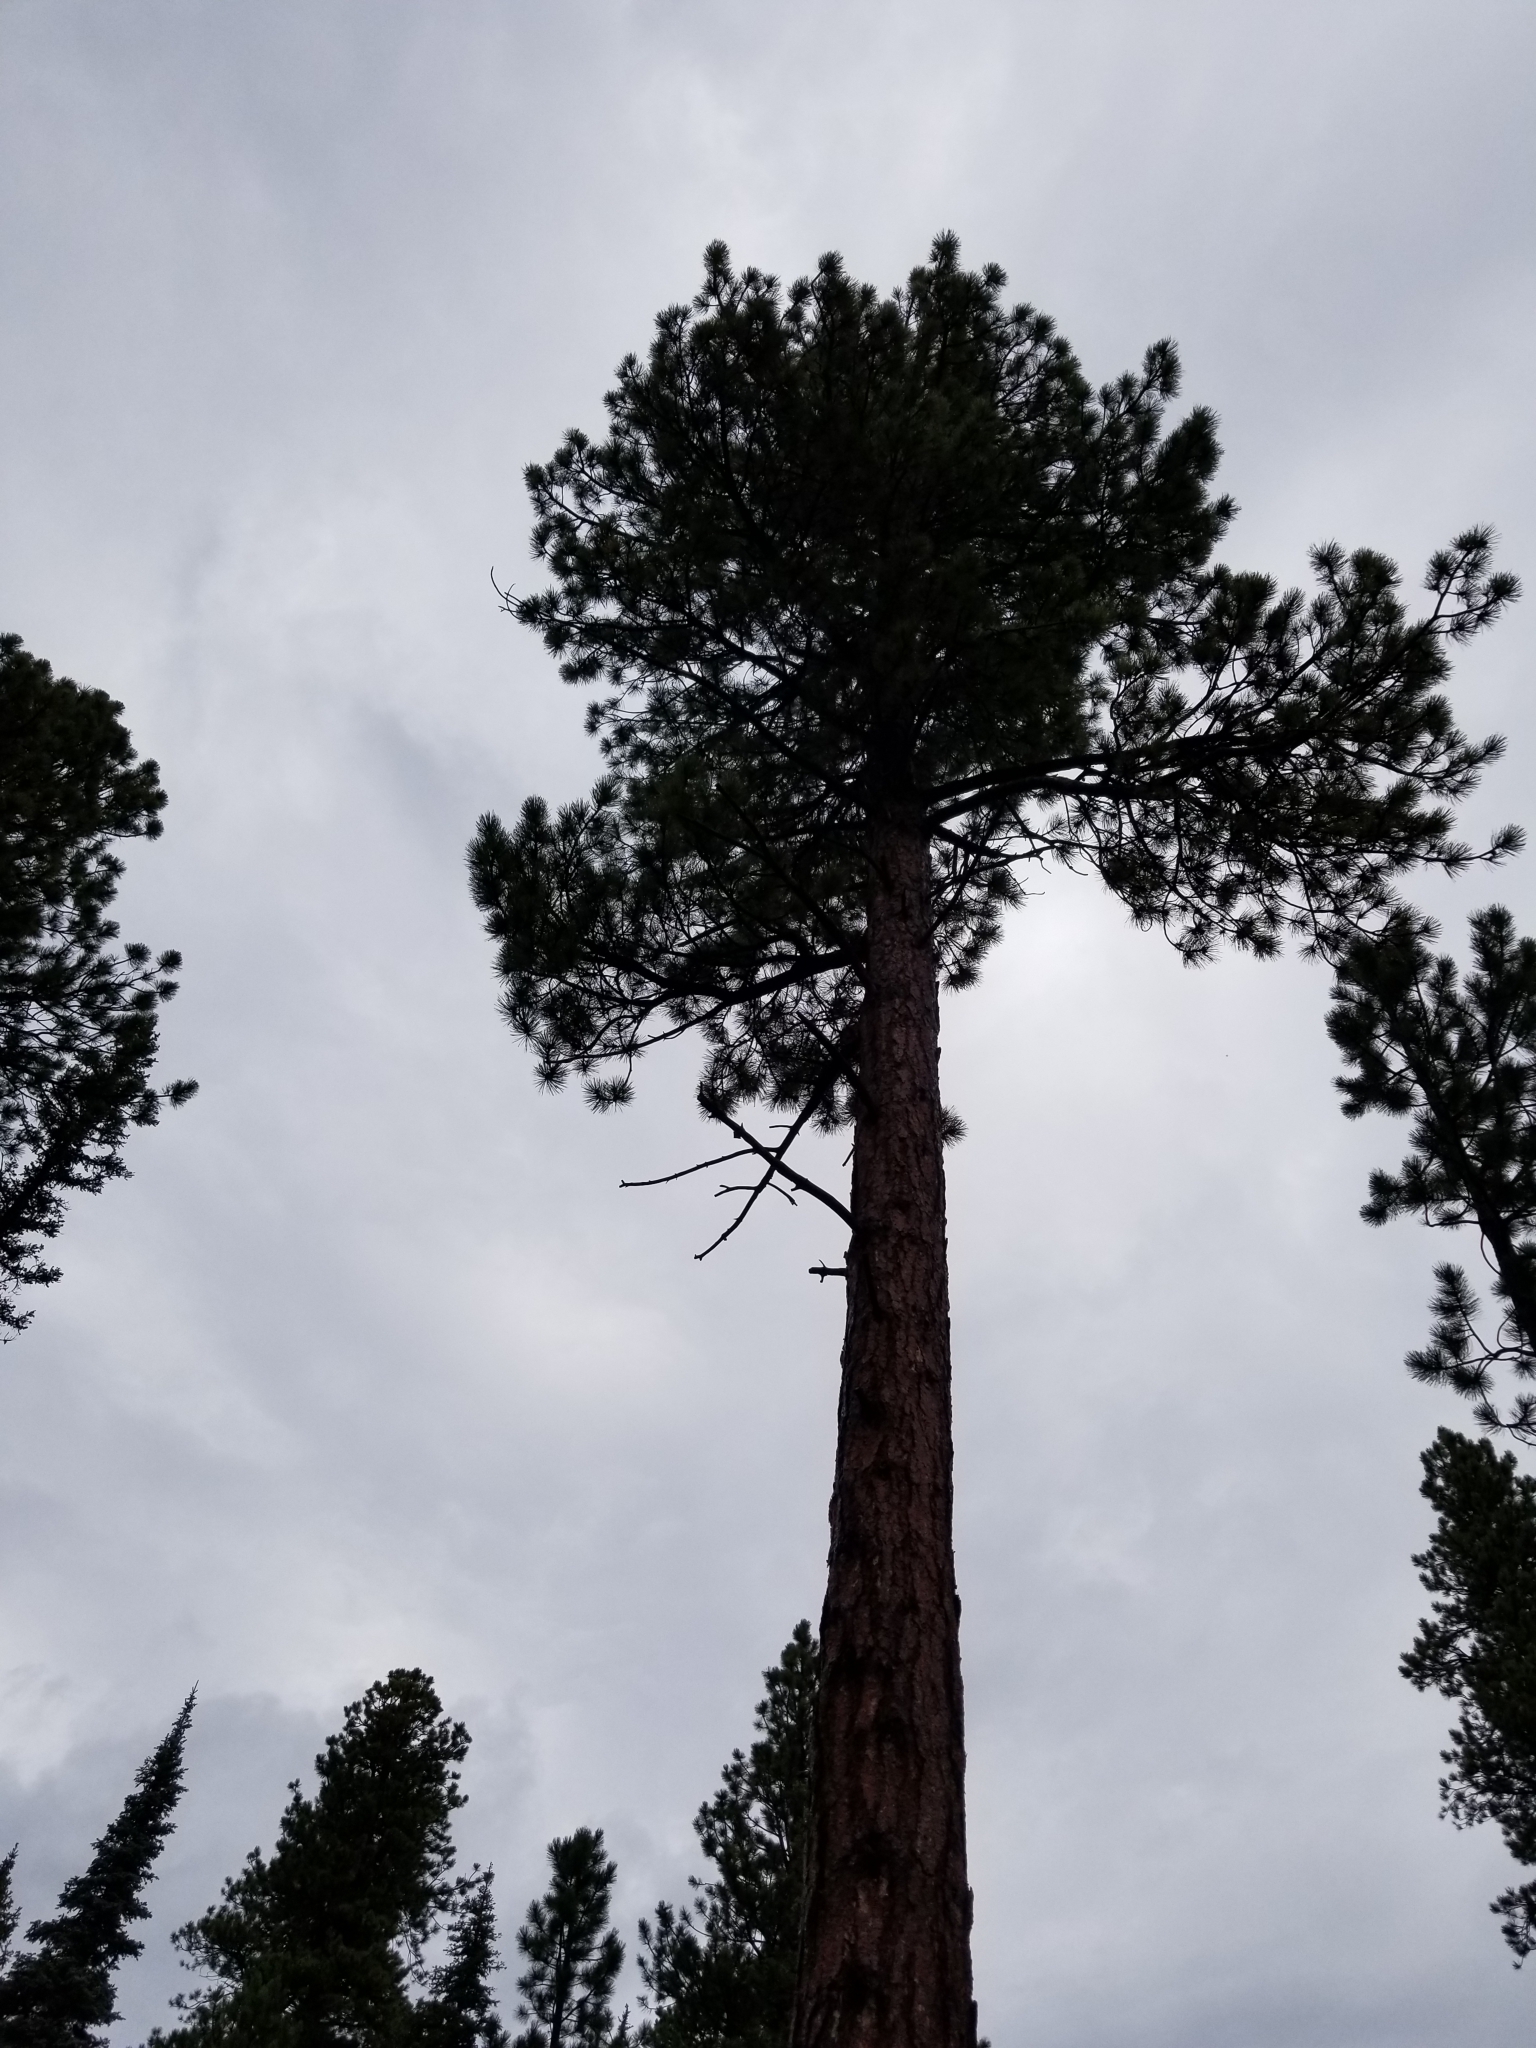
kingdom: Plantae
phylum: Tracheophyta
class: Pinopsida
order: Pinales
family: Pinaceae
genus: Pinus
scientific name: Pinus ponderosa
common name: Western yellow-pine
